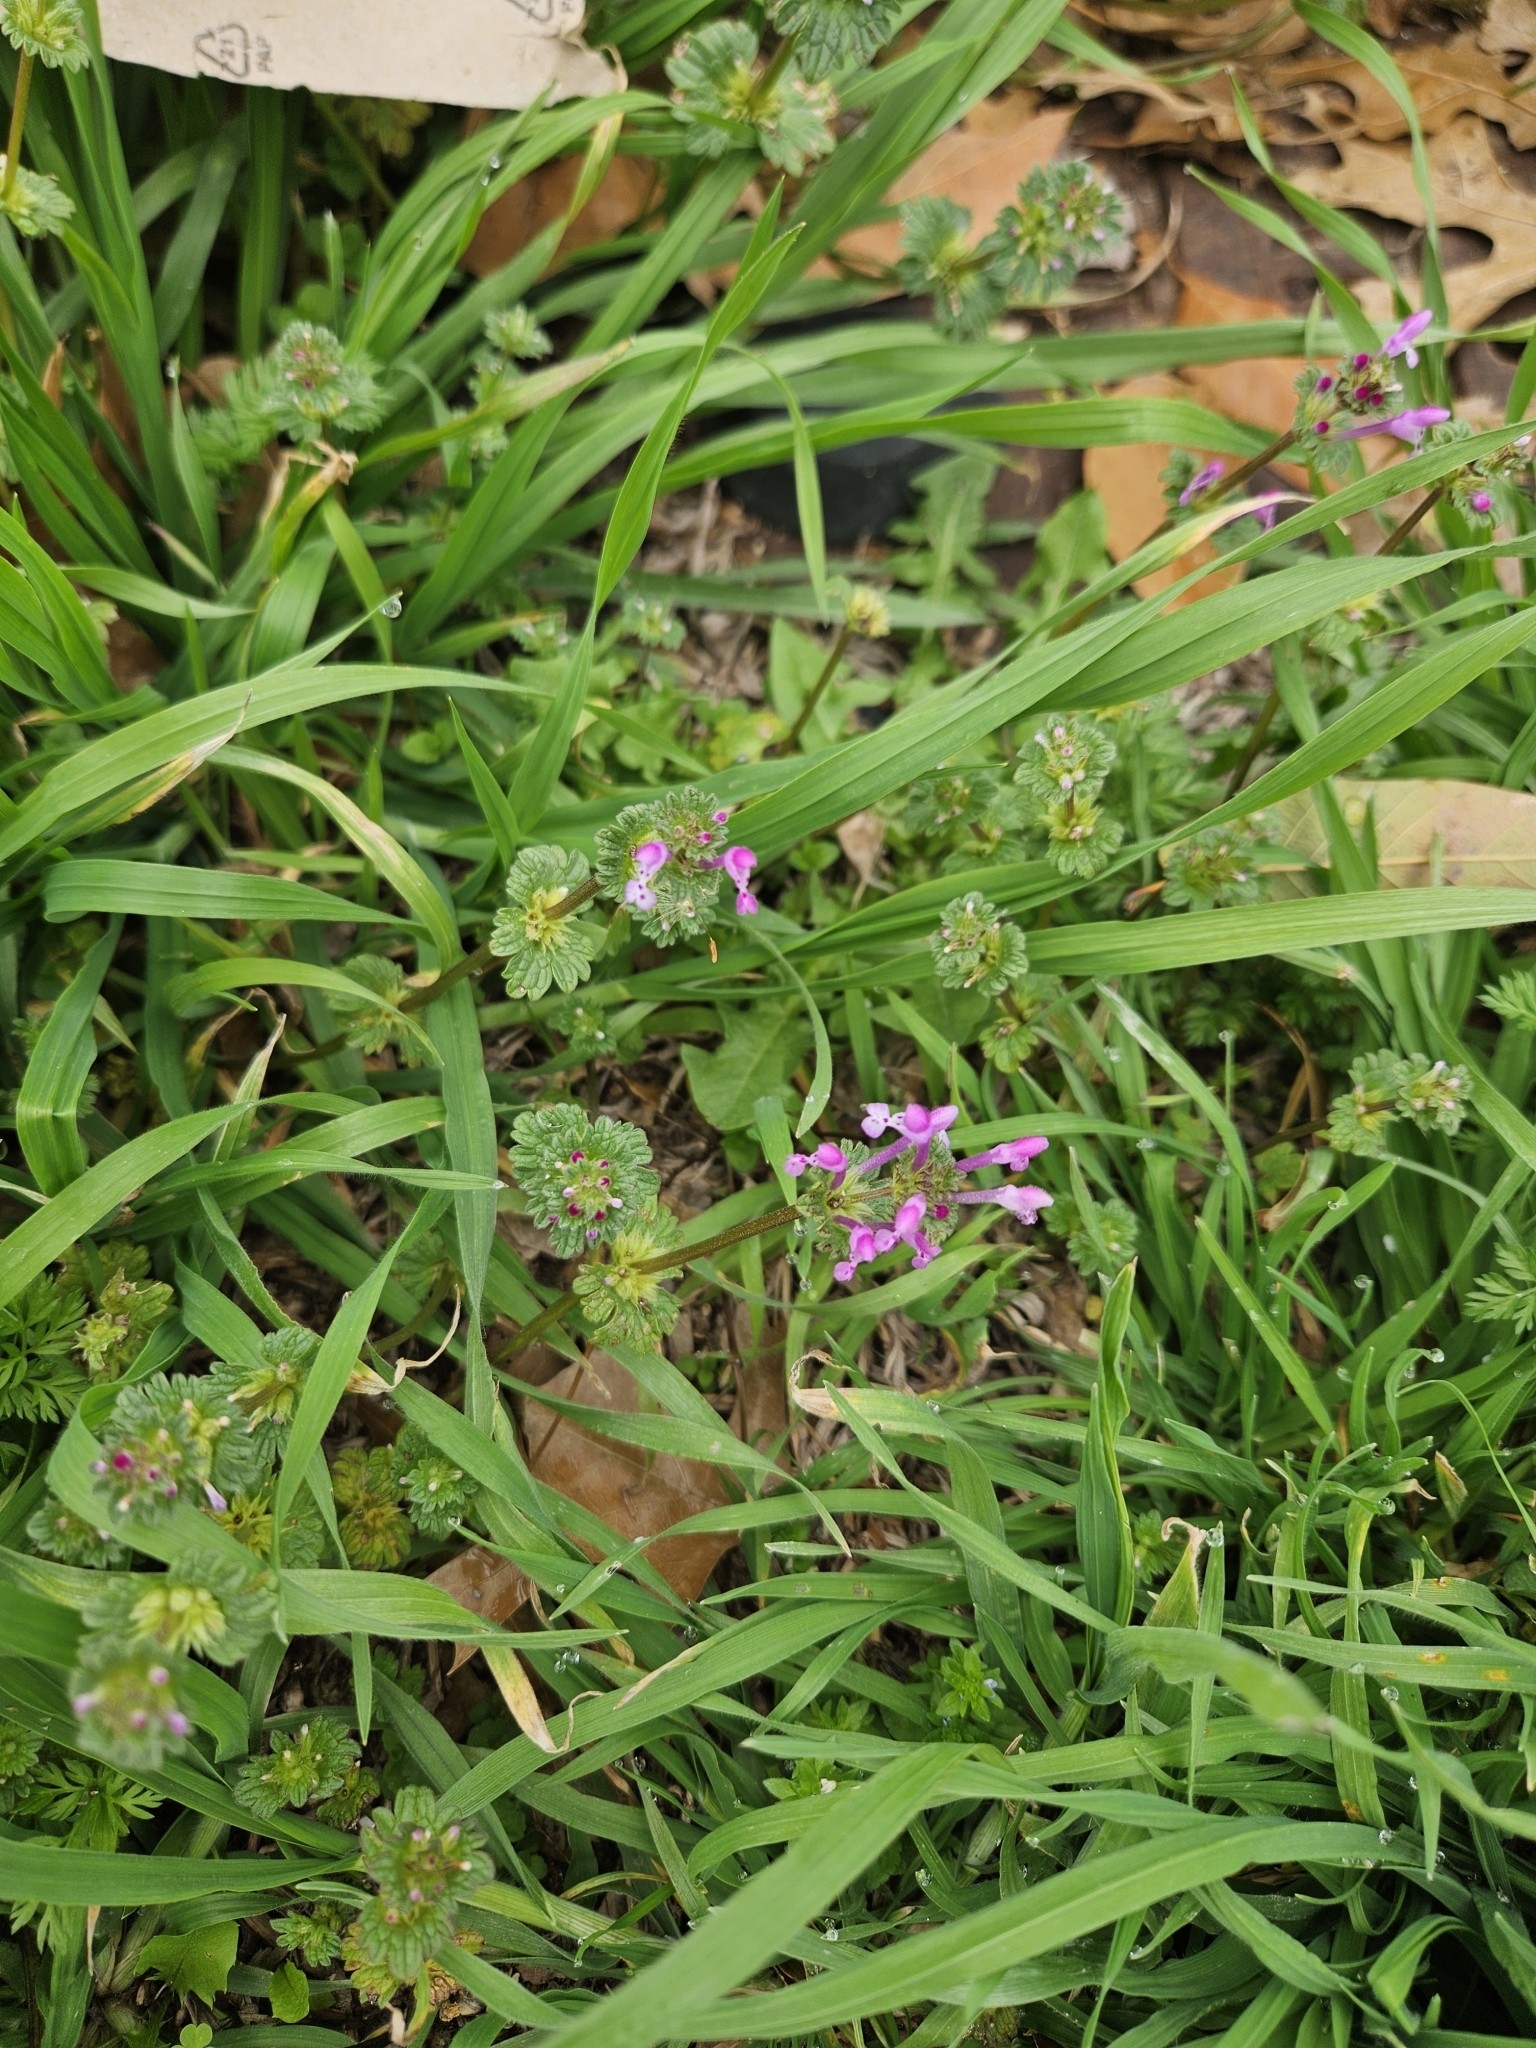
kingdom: Plantae
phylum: Tracheophyta
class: Magnoliopsida
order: Lamiales
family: Lamiaceae
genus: Lamium
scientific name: Lamium amplexicaule
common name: Henbit dead-nettle
